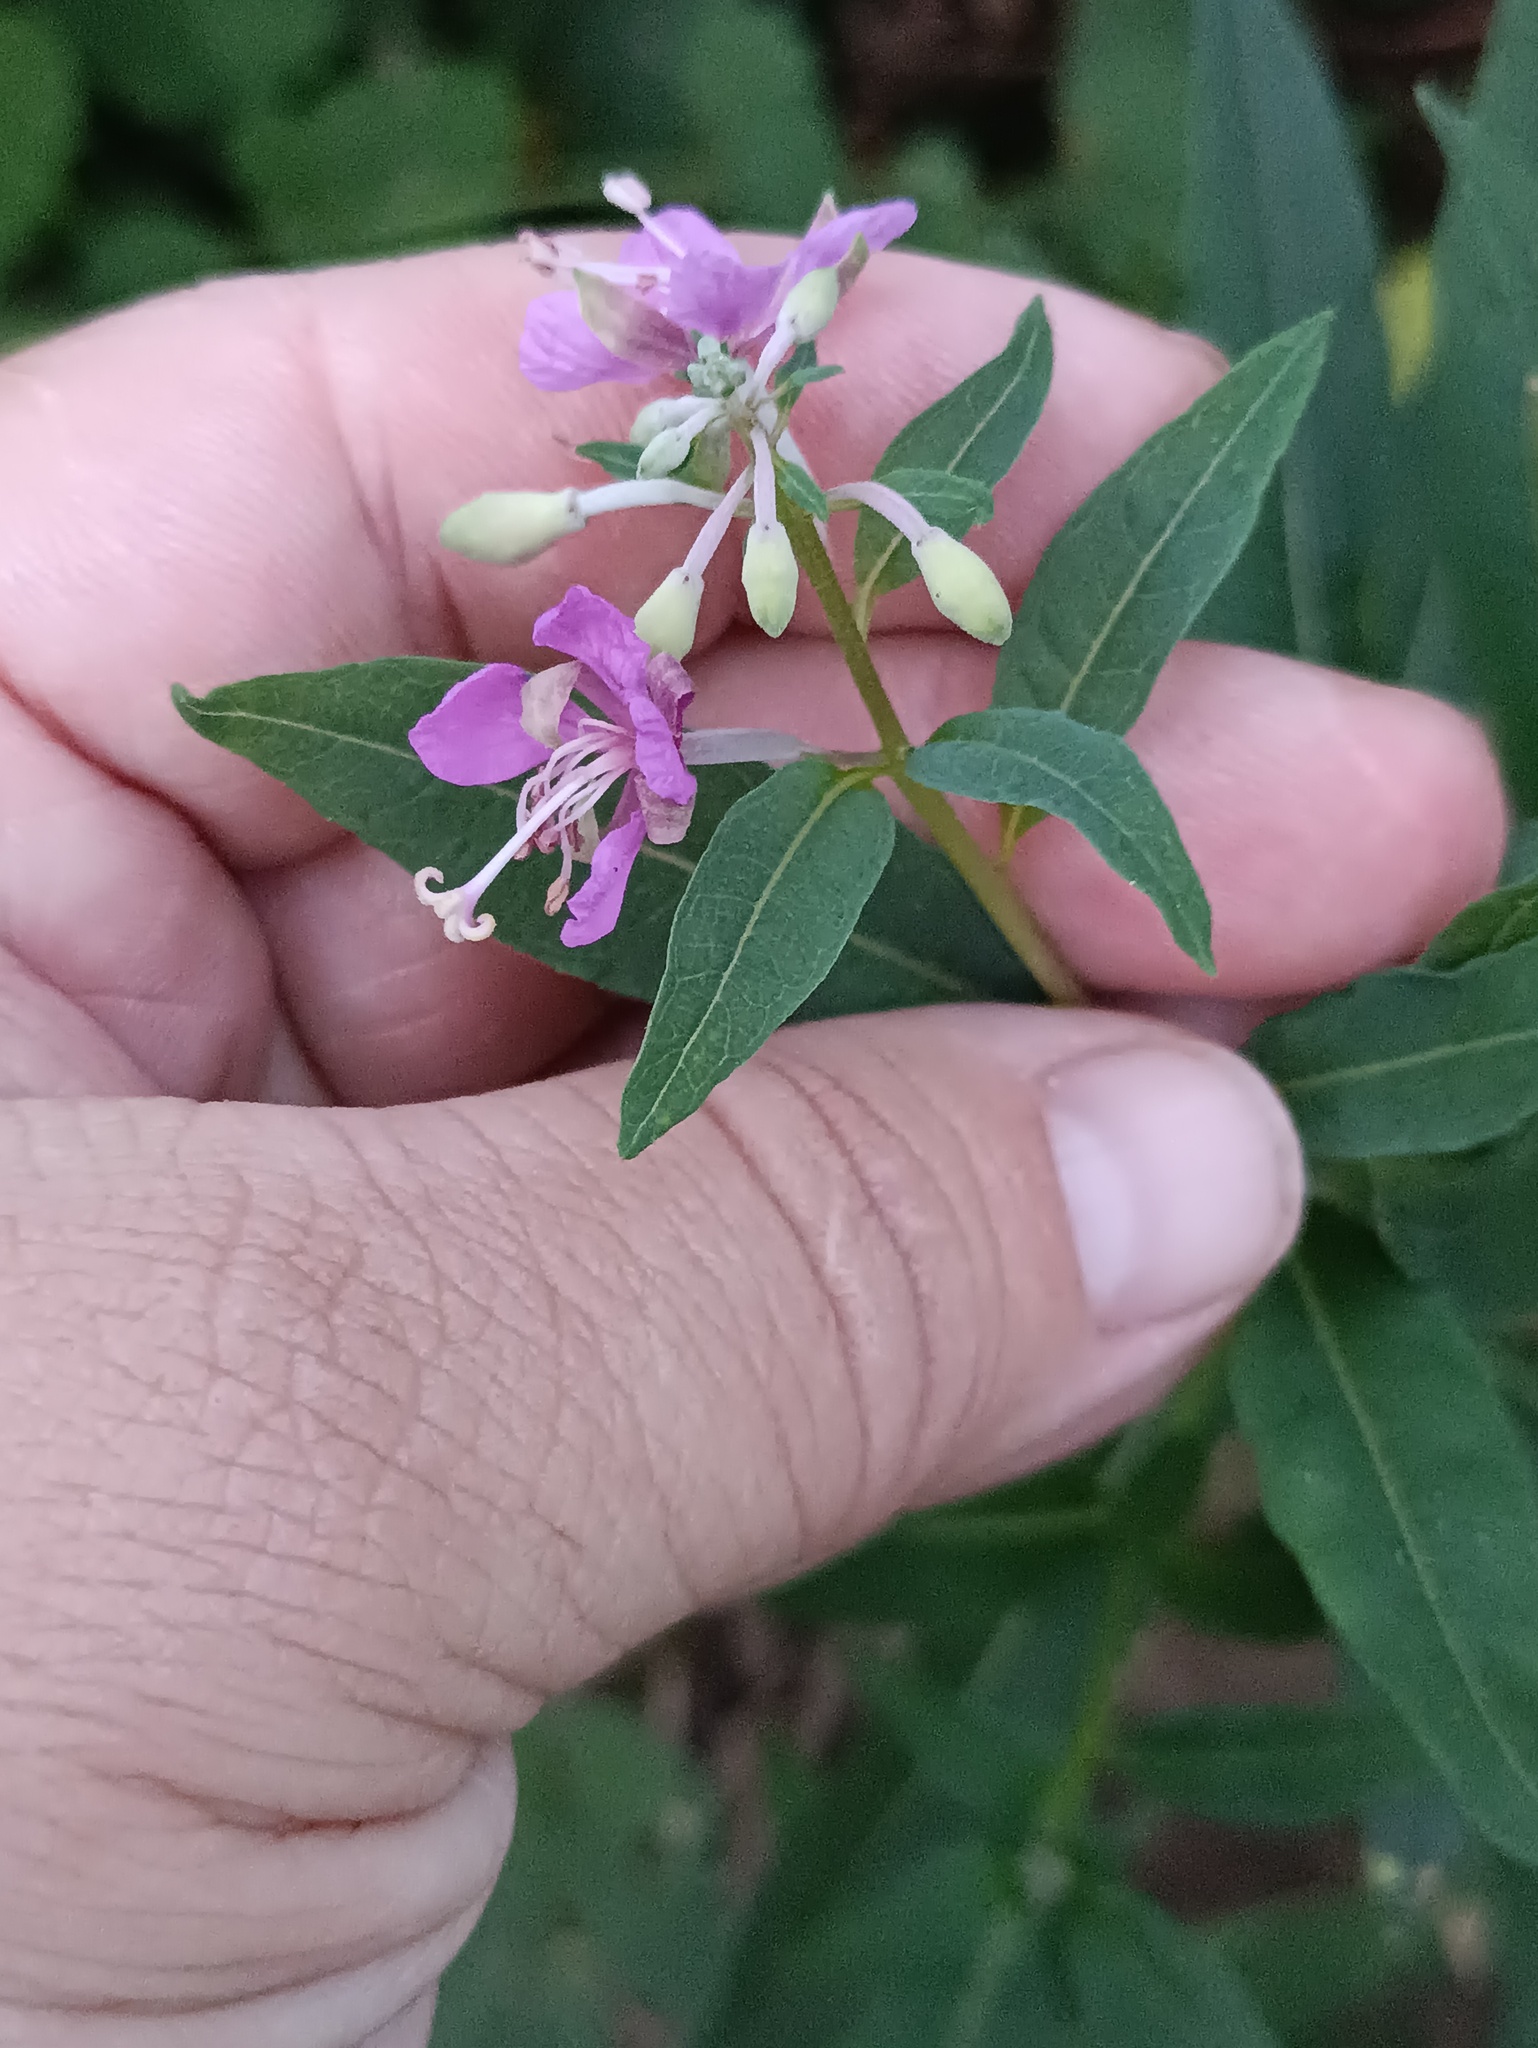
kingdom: Plantae
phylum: Tracheophyta
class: Magnoliopsida
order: Myrtales
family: Onagraceae
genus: Chamaenerion
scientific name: Chamaenerion angustifolium
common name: Fireweed
